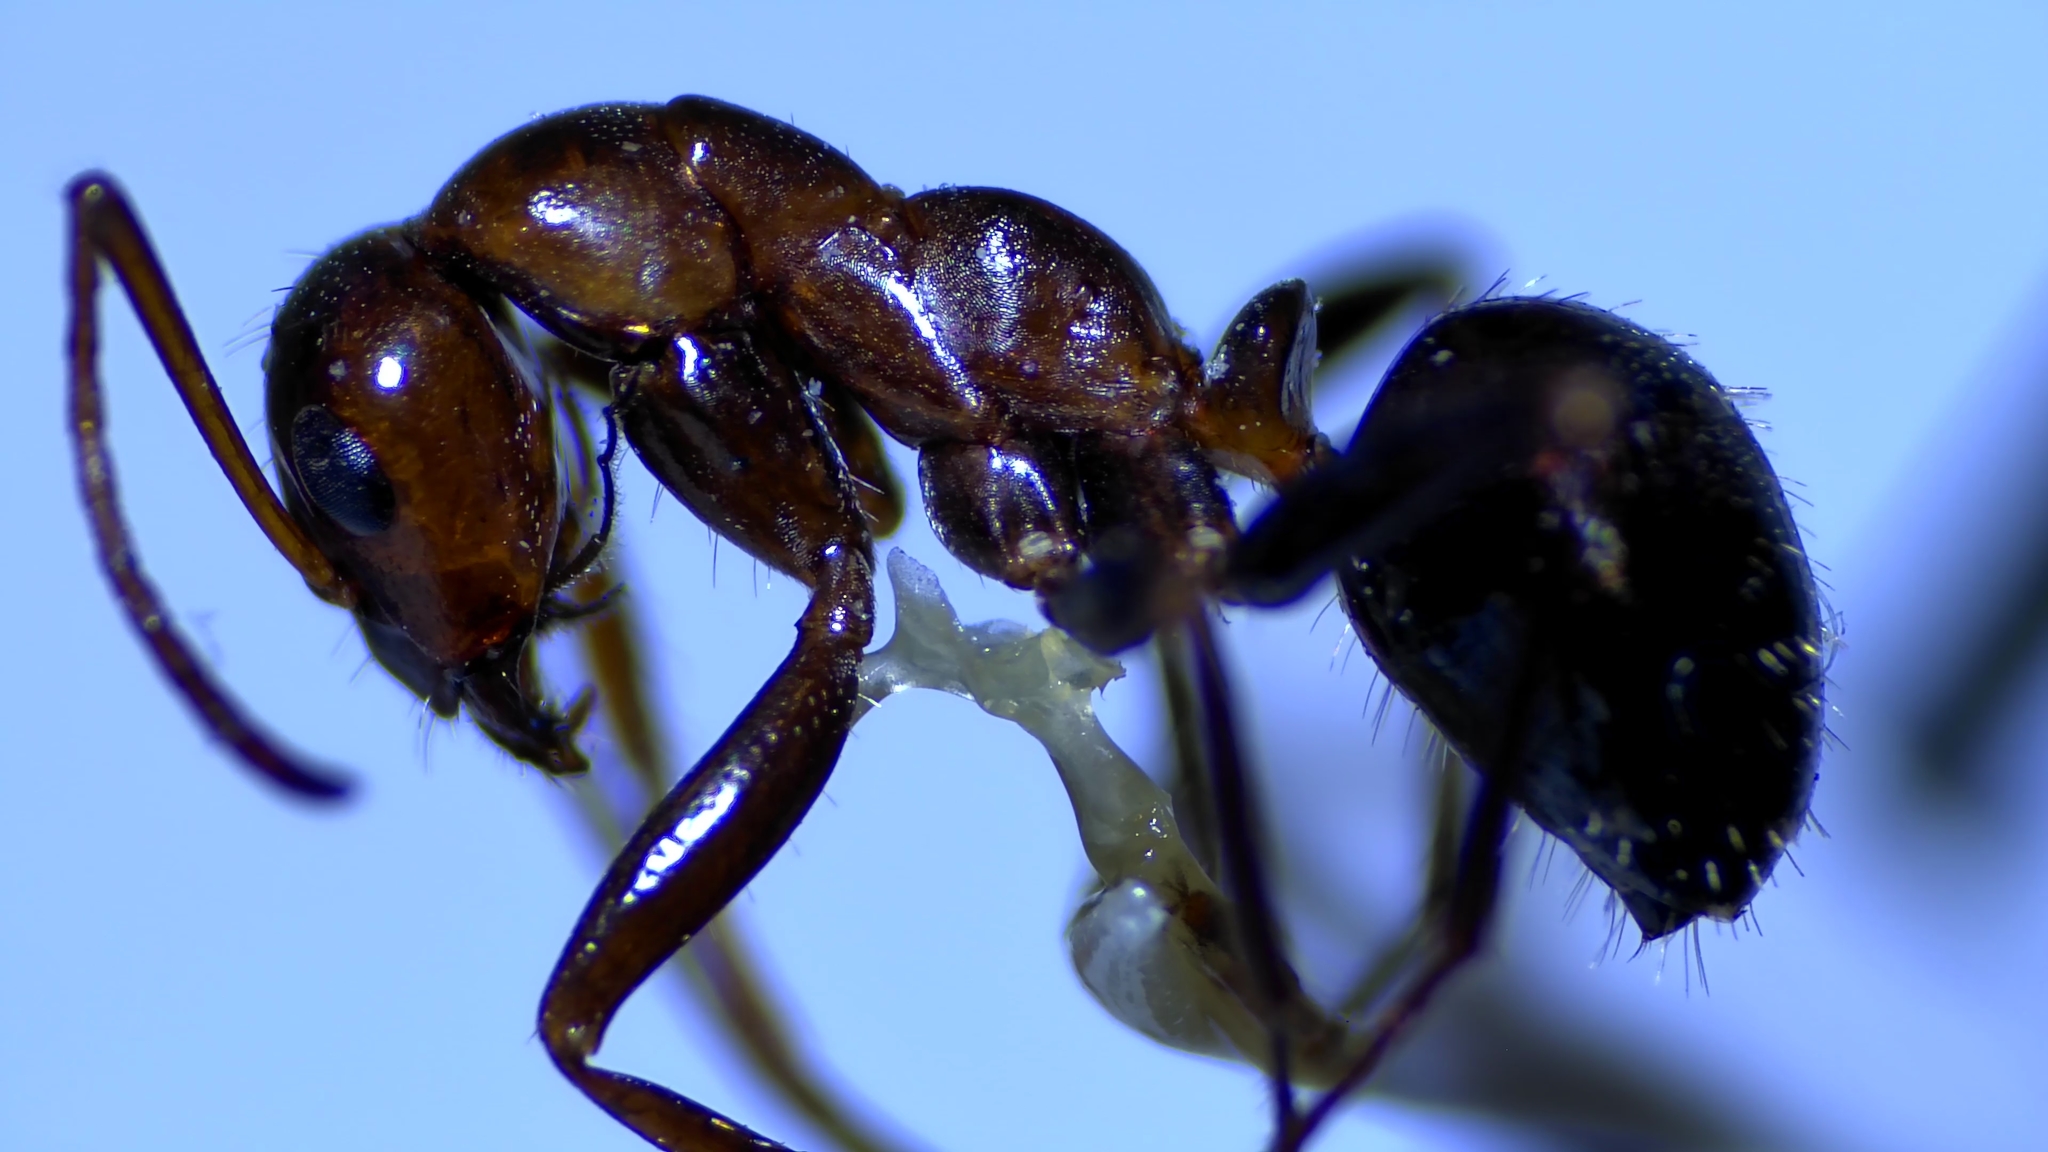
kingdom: Animalia
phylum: Arthropoda
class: Insecta
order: Hymenoptera
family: Formicidae
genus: Formica
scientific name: Formica pallidefulva
